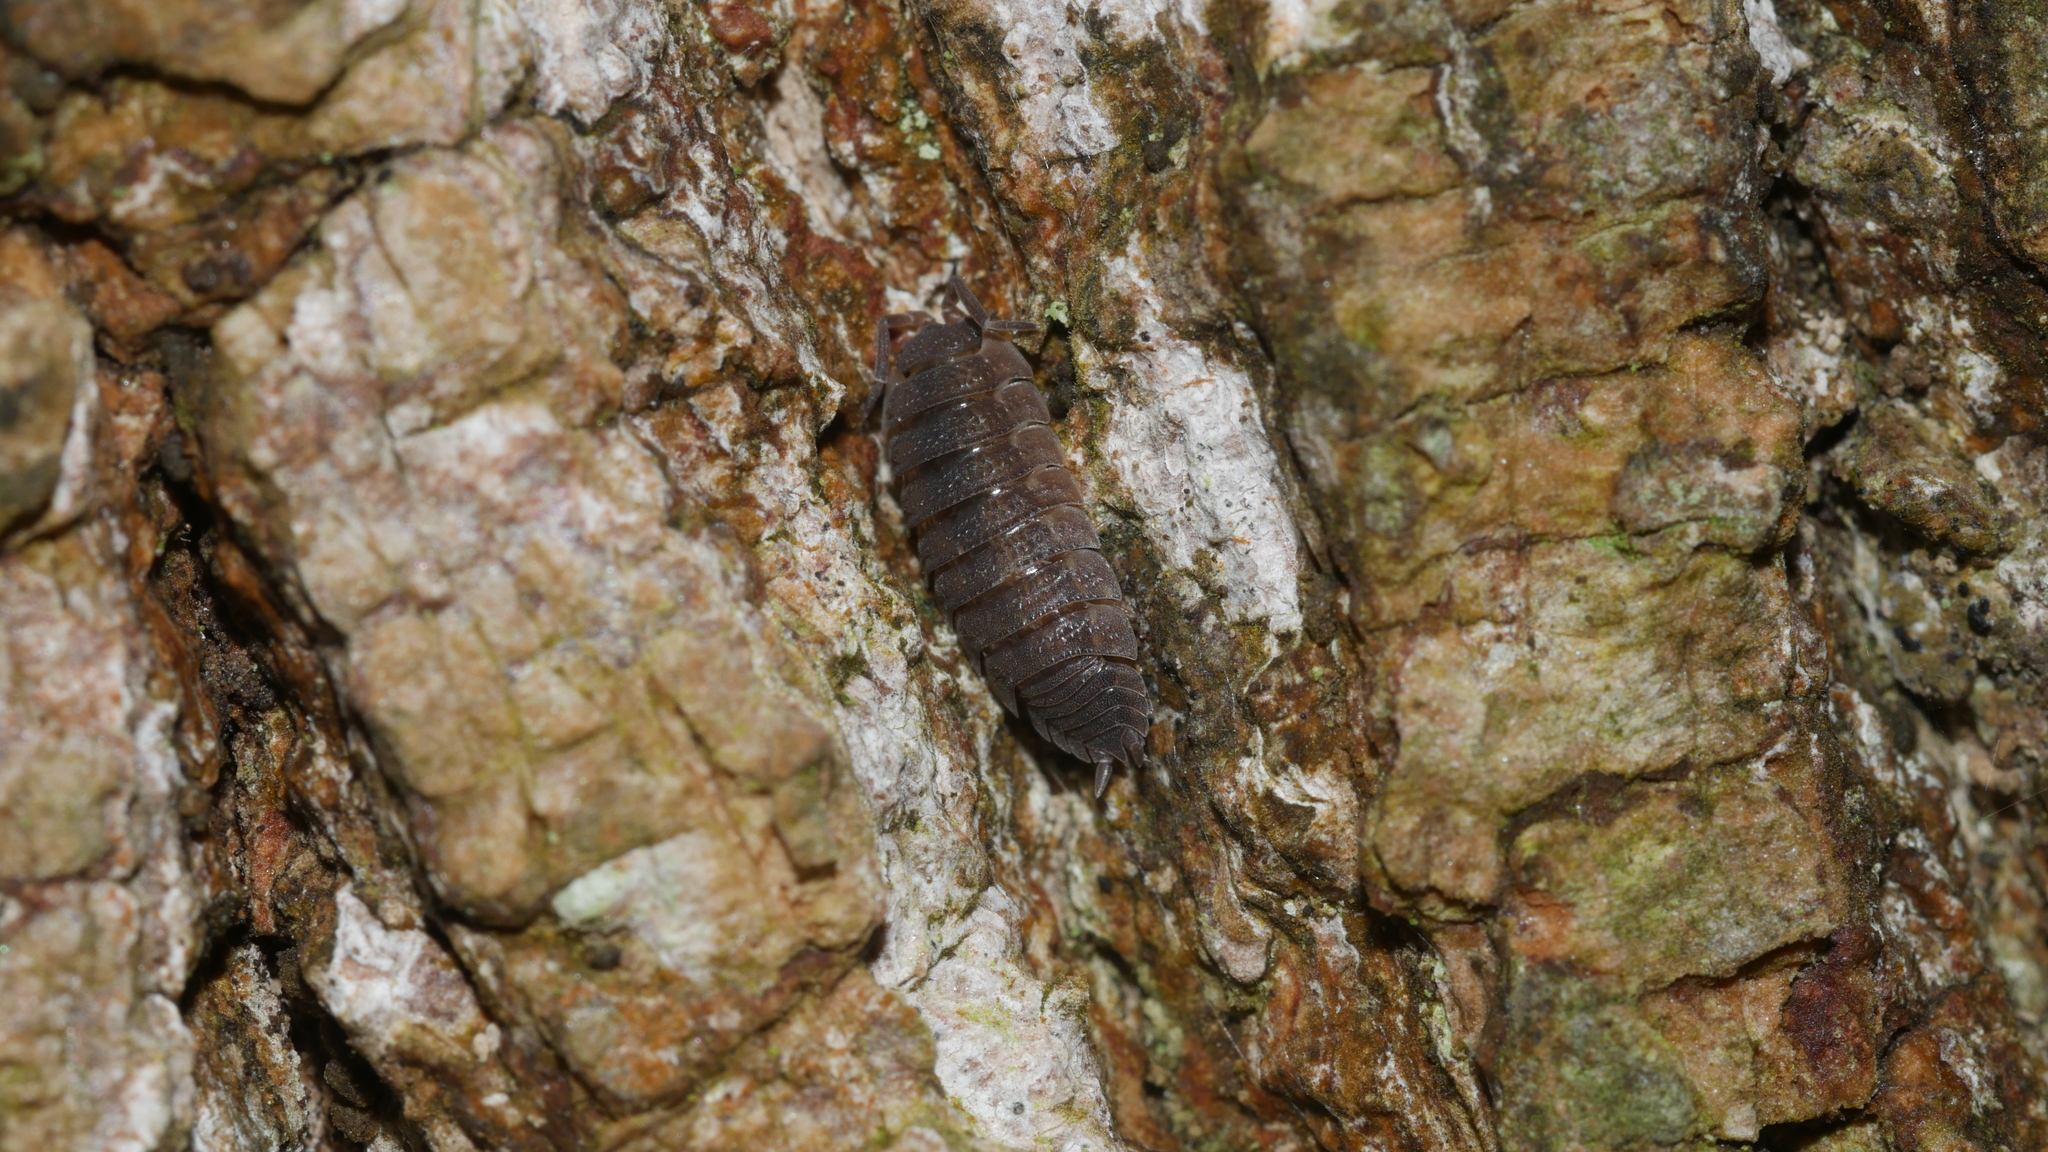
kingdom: Animalia
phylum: Arthropoda
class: Malacostraca
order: Isopoda
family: Porcellionidae
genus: Porcellio
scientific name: Porcellio scaber
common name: Common rough woodlouse
